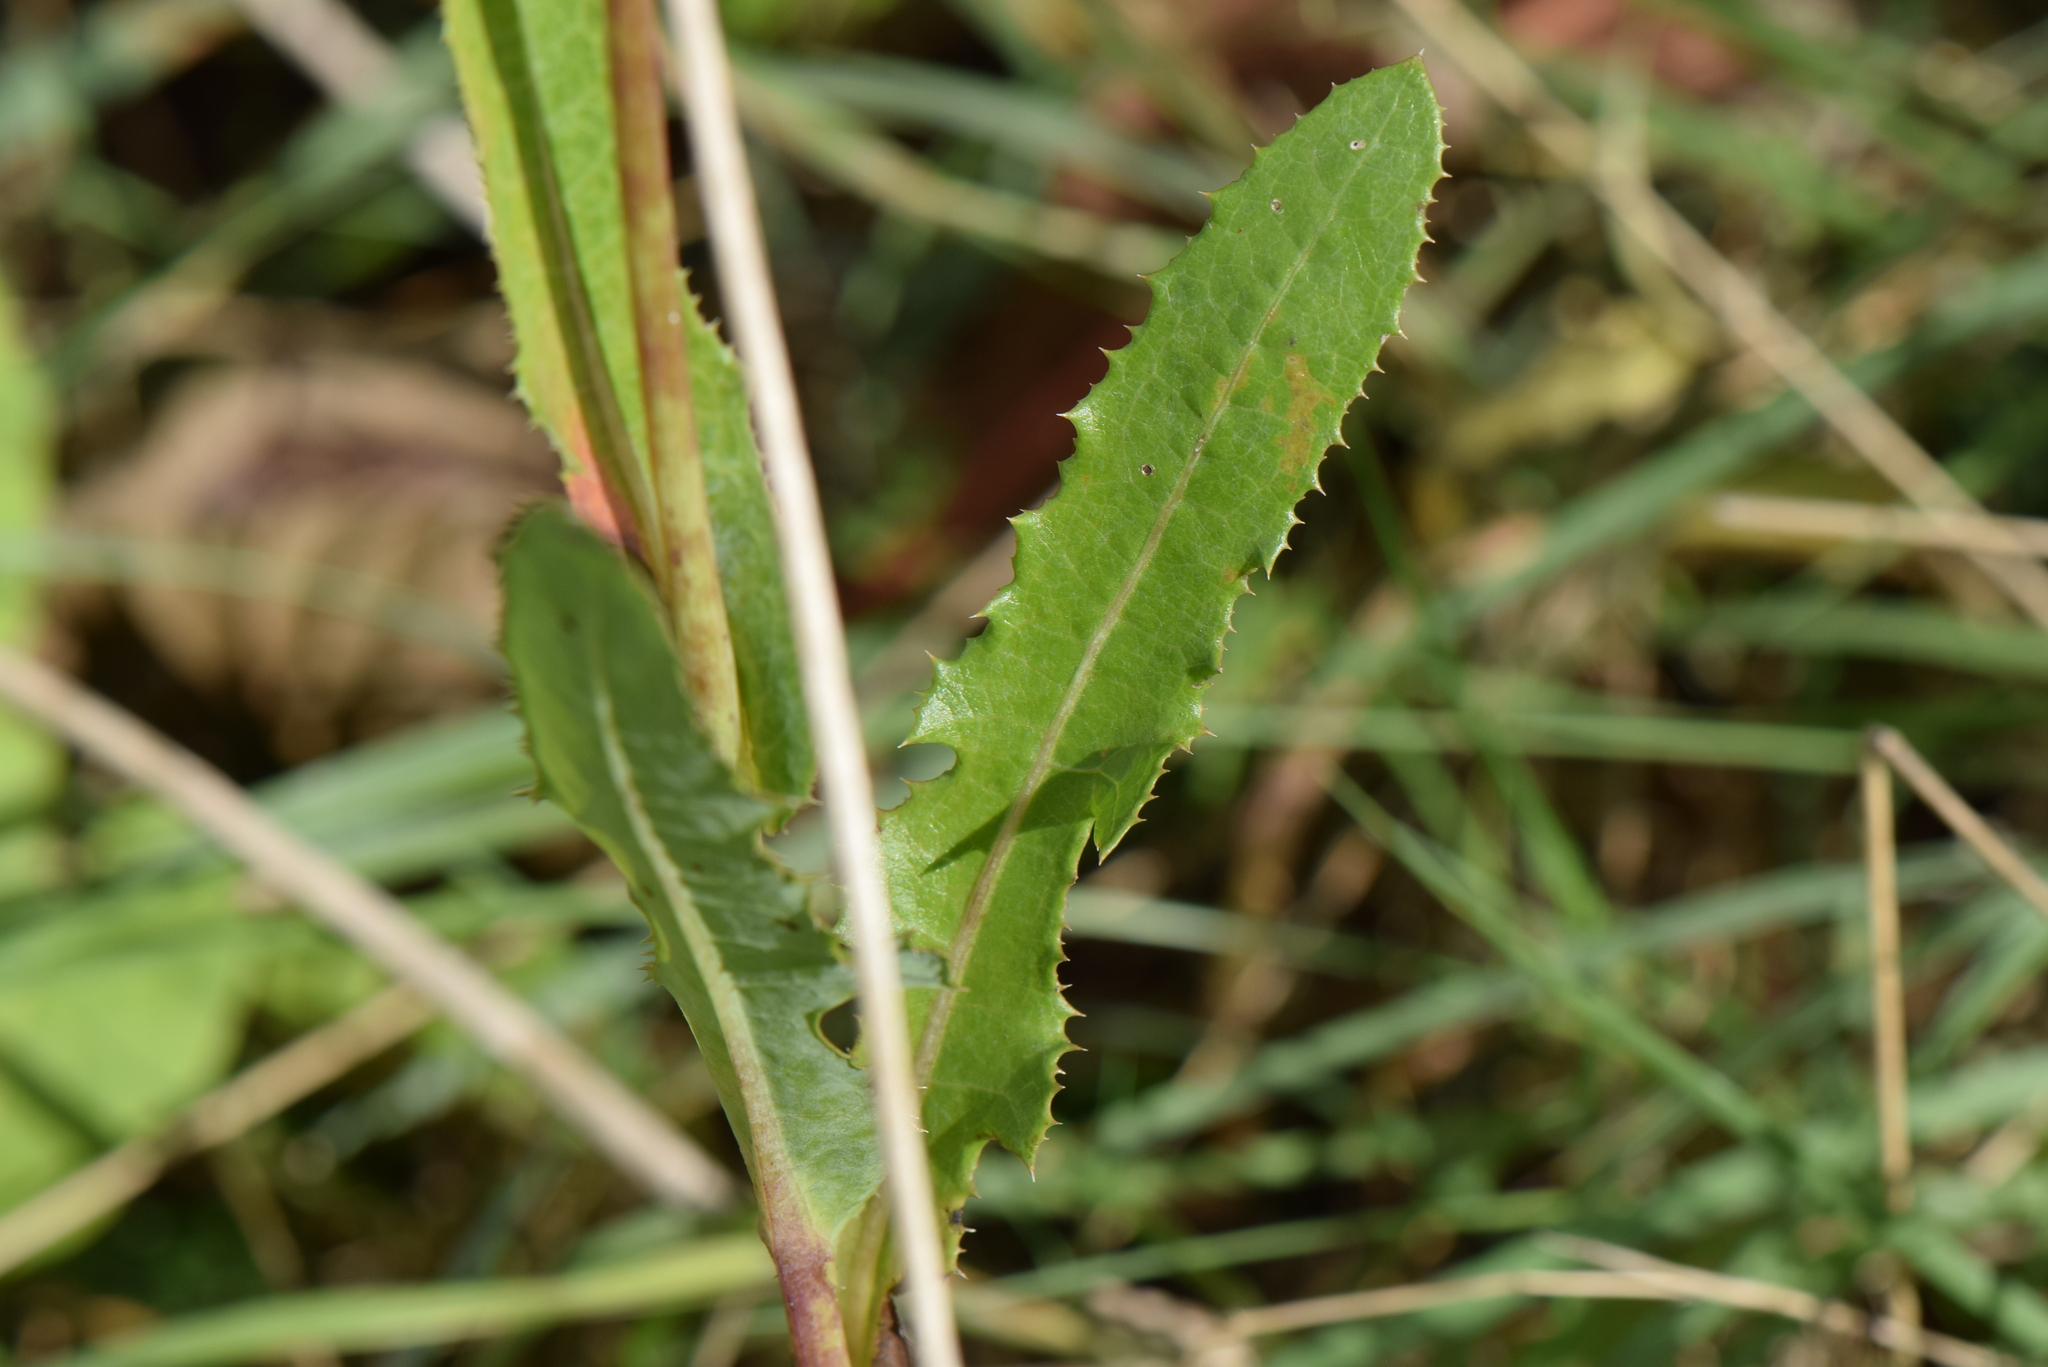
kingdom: Plantae
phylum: Tracheophyta
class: Magnoliopsida
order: Asterales
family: Asteraceae
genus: Sonchus
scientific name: Sonchus arvensis
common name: Perennial sow-thistle
